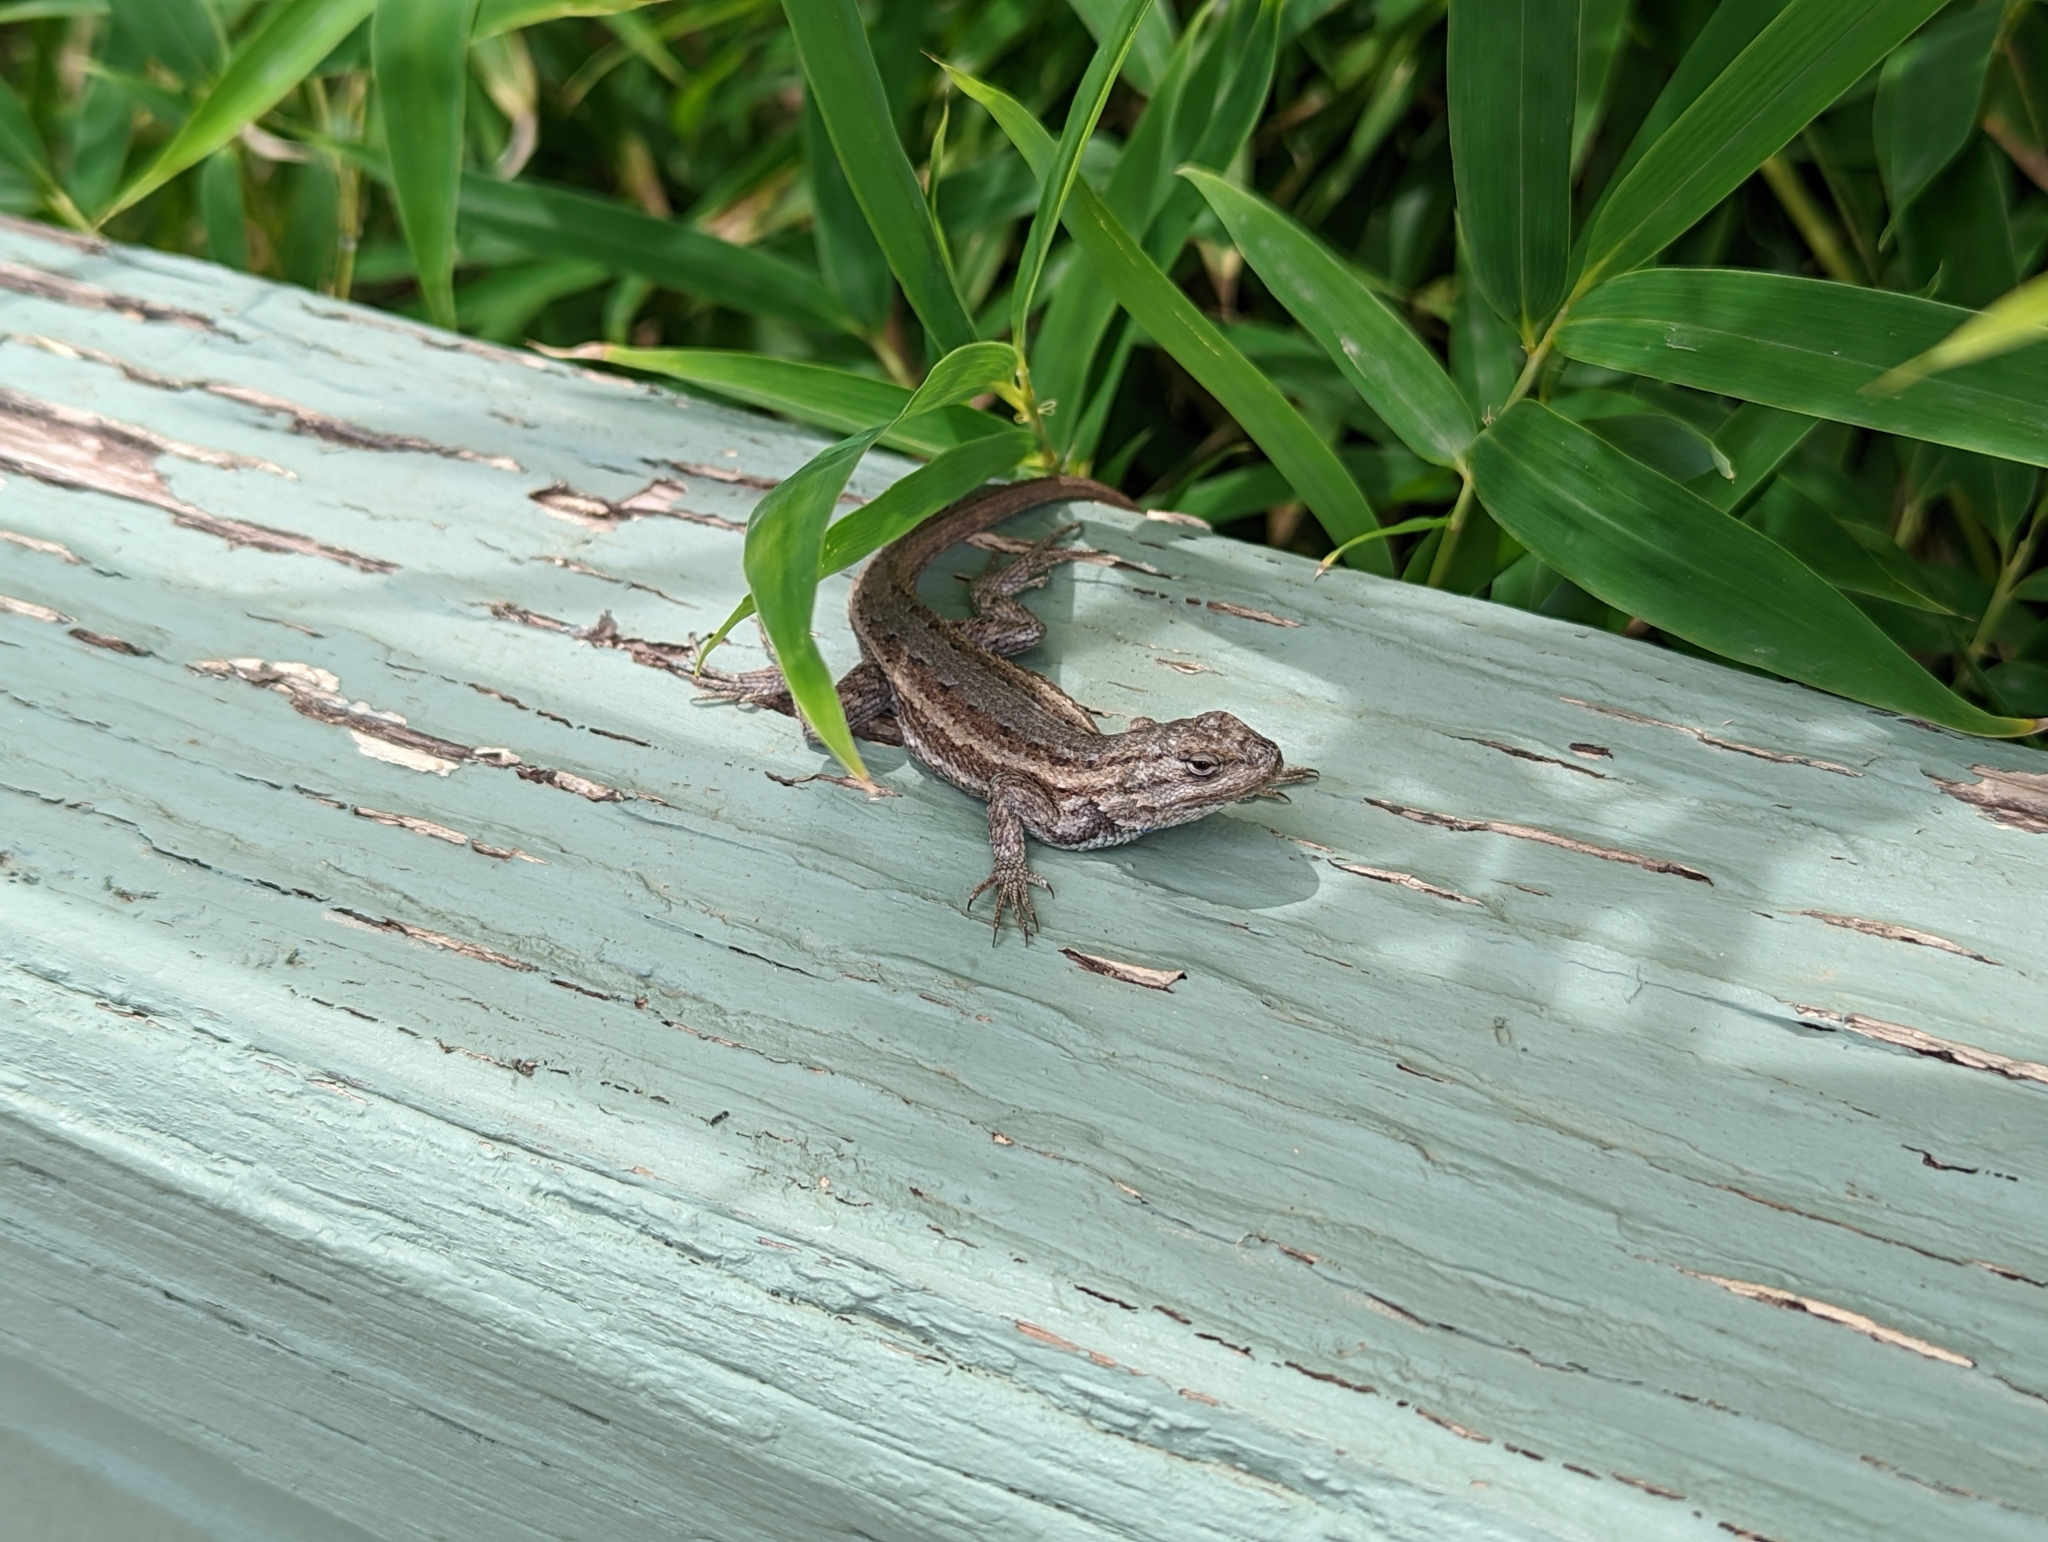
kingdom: Animalia
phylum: Chordata
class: Squamata
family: Phrynosomatidae
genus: Sceloporus
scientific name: Sceloporus cowlesi
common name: White sands prairie lizard
